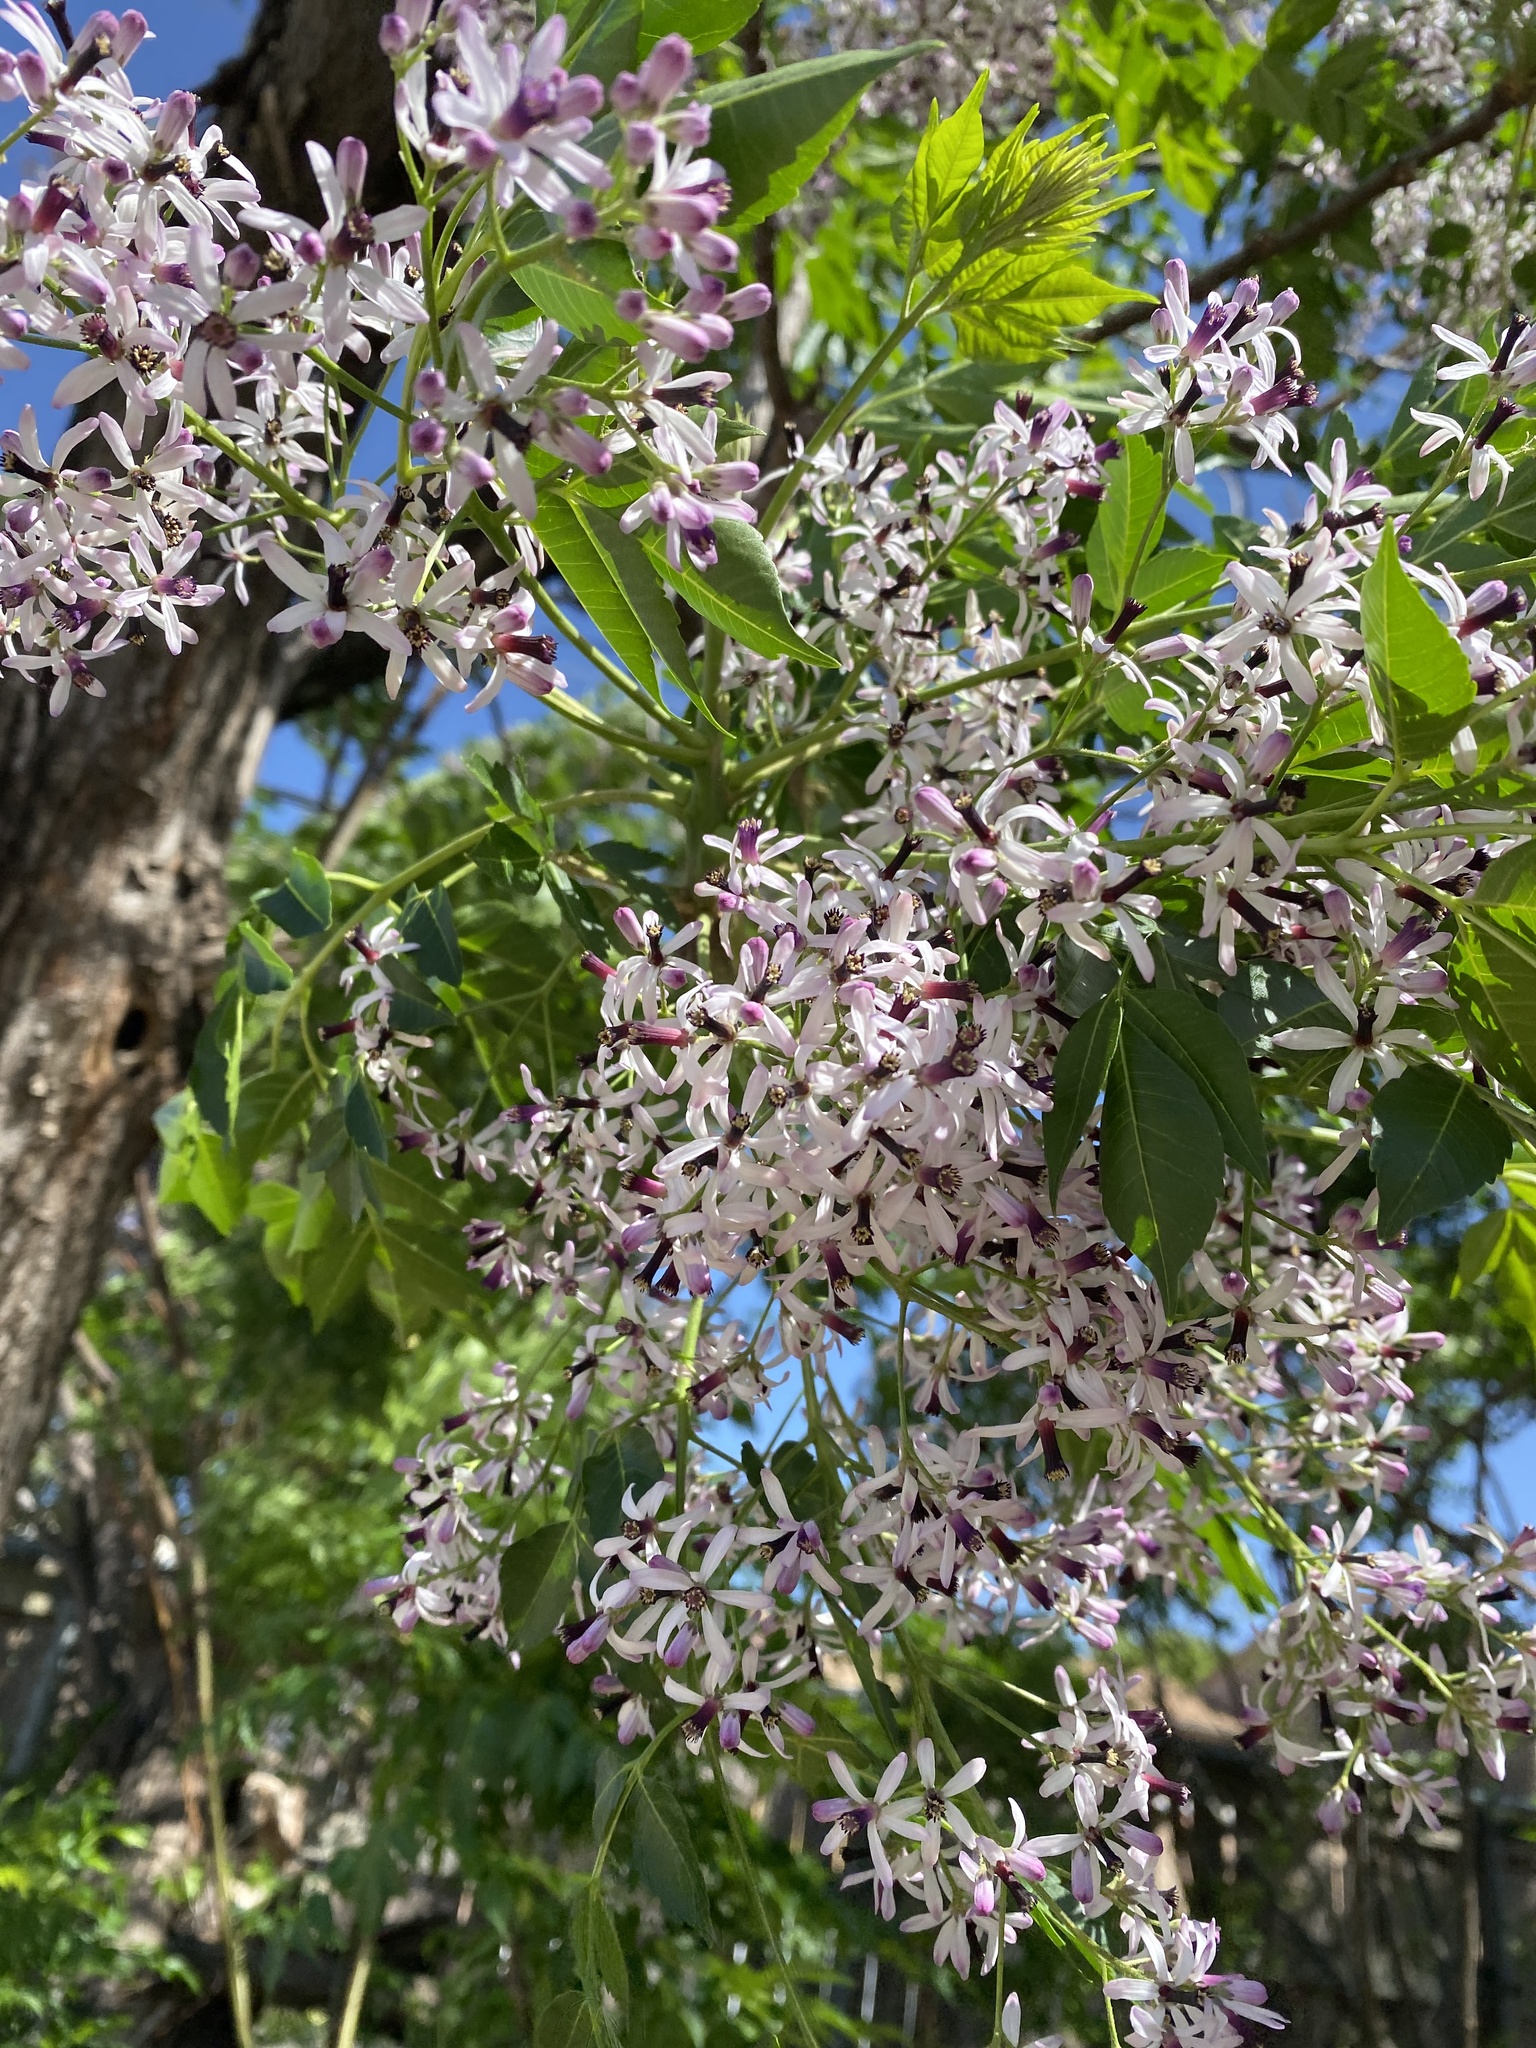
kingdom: Plantae
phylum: Tracheophyta
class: Magnoliopsida
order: Sapindales
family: Meliaceae
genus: Melia
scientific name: Melia azedarach
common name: Chinaberrytree
